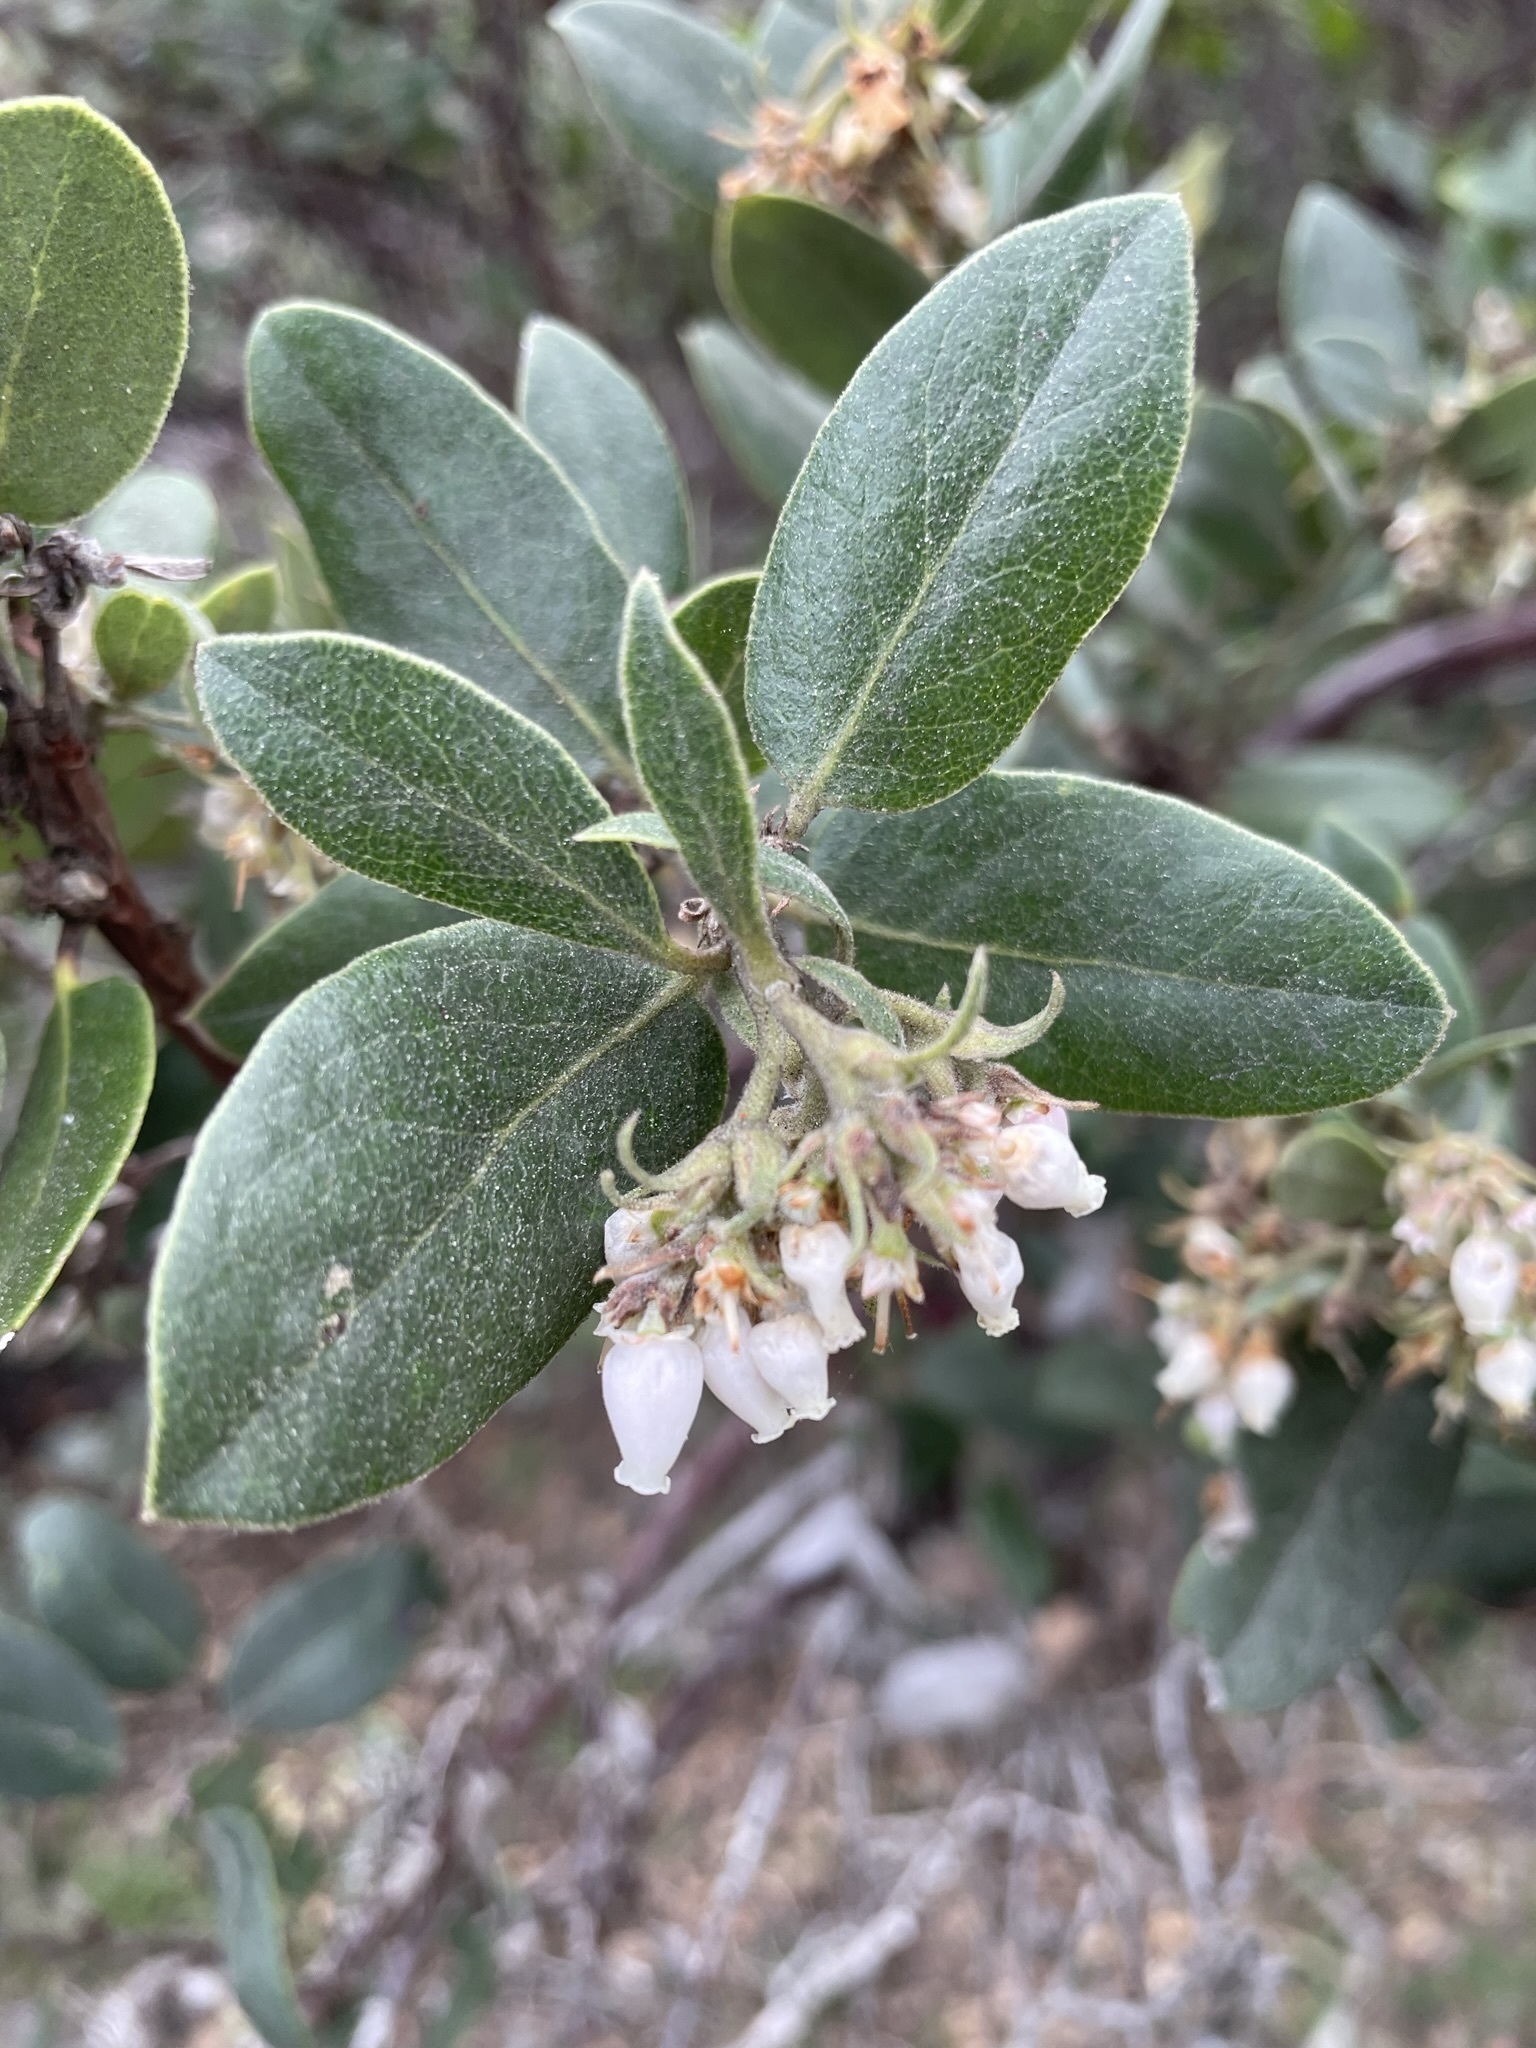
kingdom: Plantae
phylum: Tracheophyta
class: Magnoliopsida
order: Ericales
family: Ericaceae
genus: Arctostaphylos
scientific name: Arctostaphylos tomentosa
